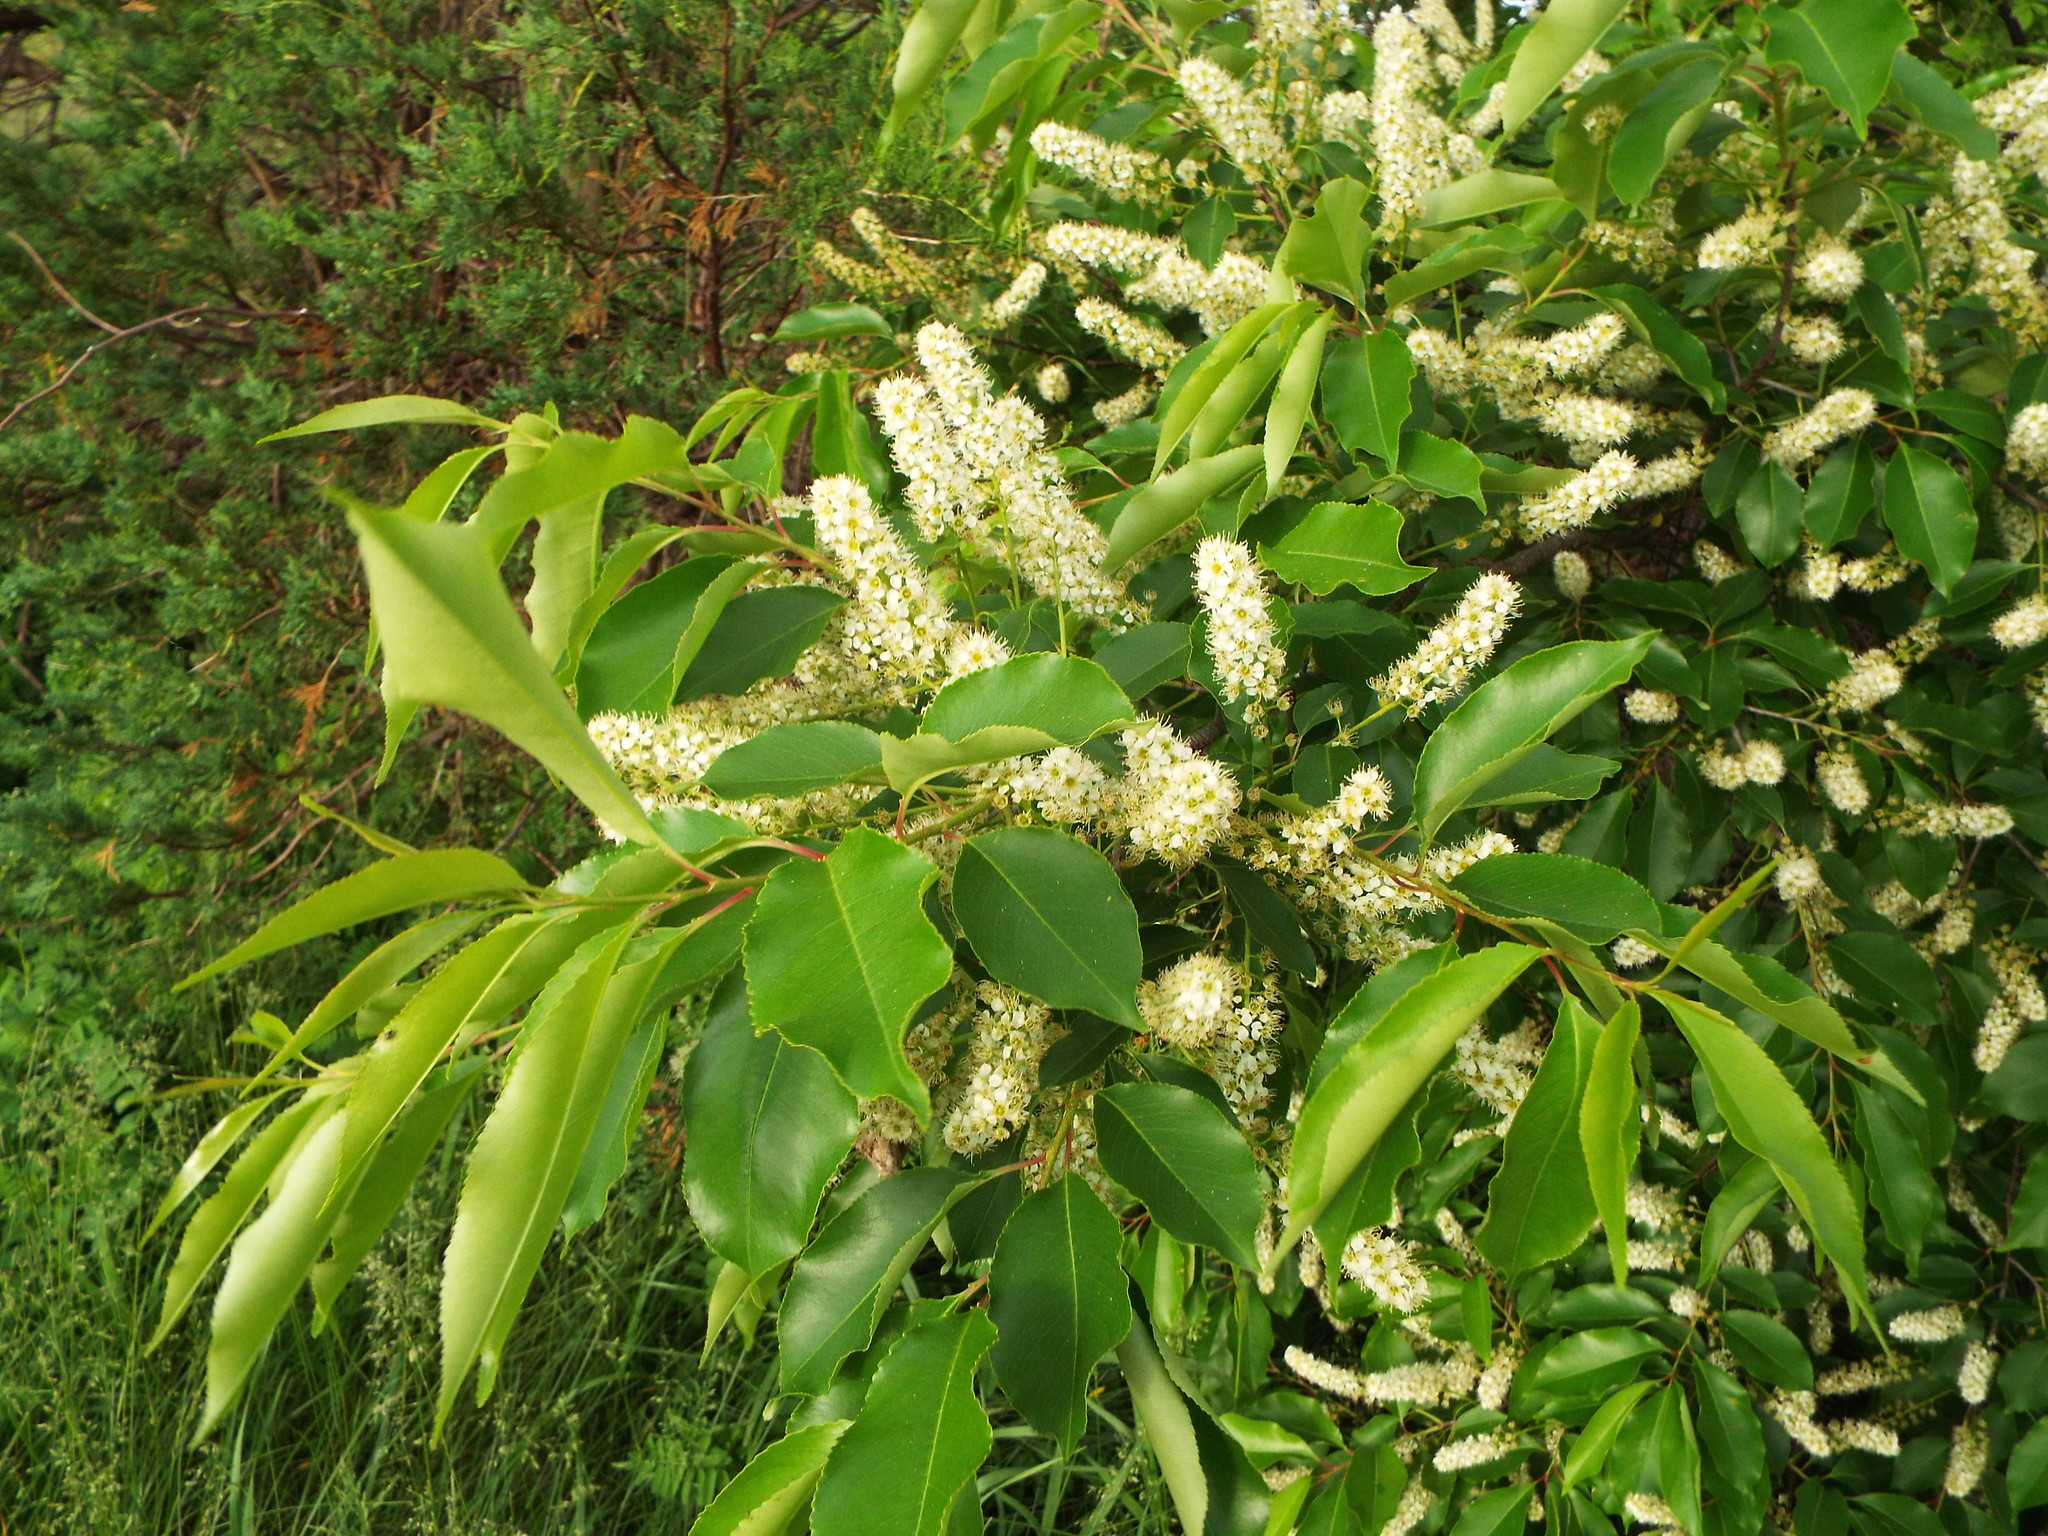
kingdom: Plantae
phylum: Tracheophyta
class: Magnoliopsida
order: Rosales
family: Rosaceae
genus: Prunus
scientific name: Prunus serotina
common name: Black cherry
